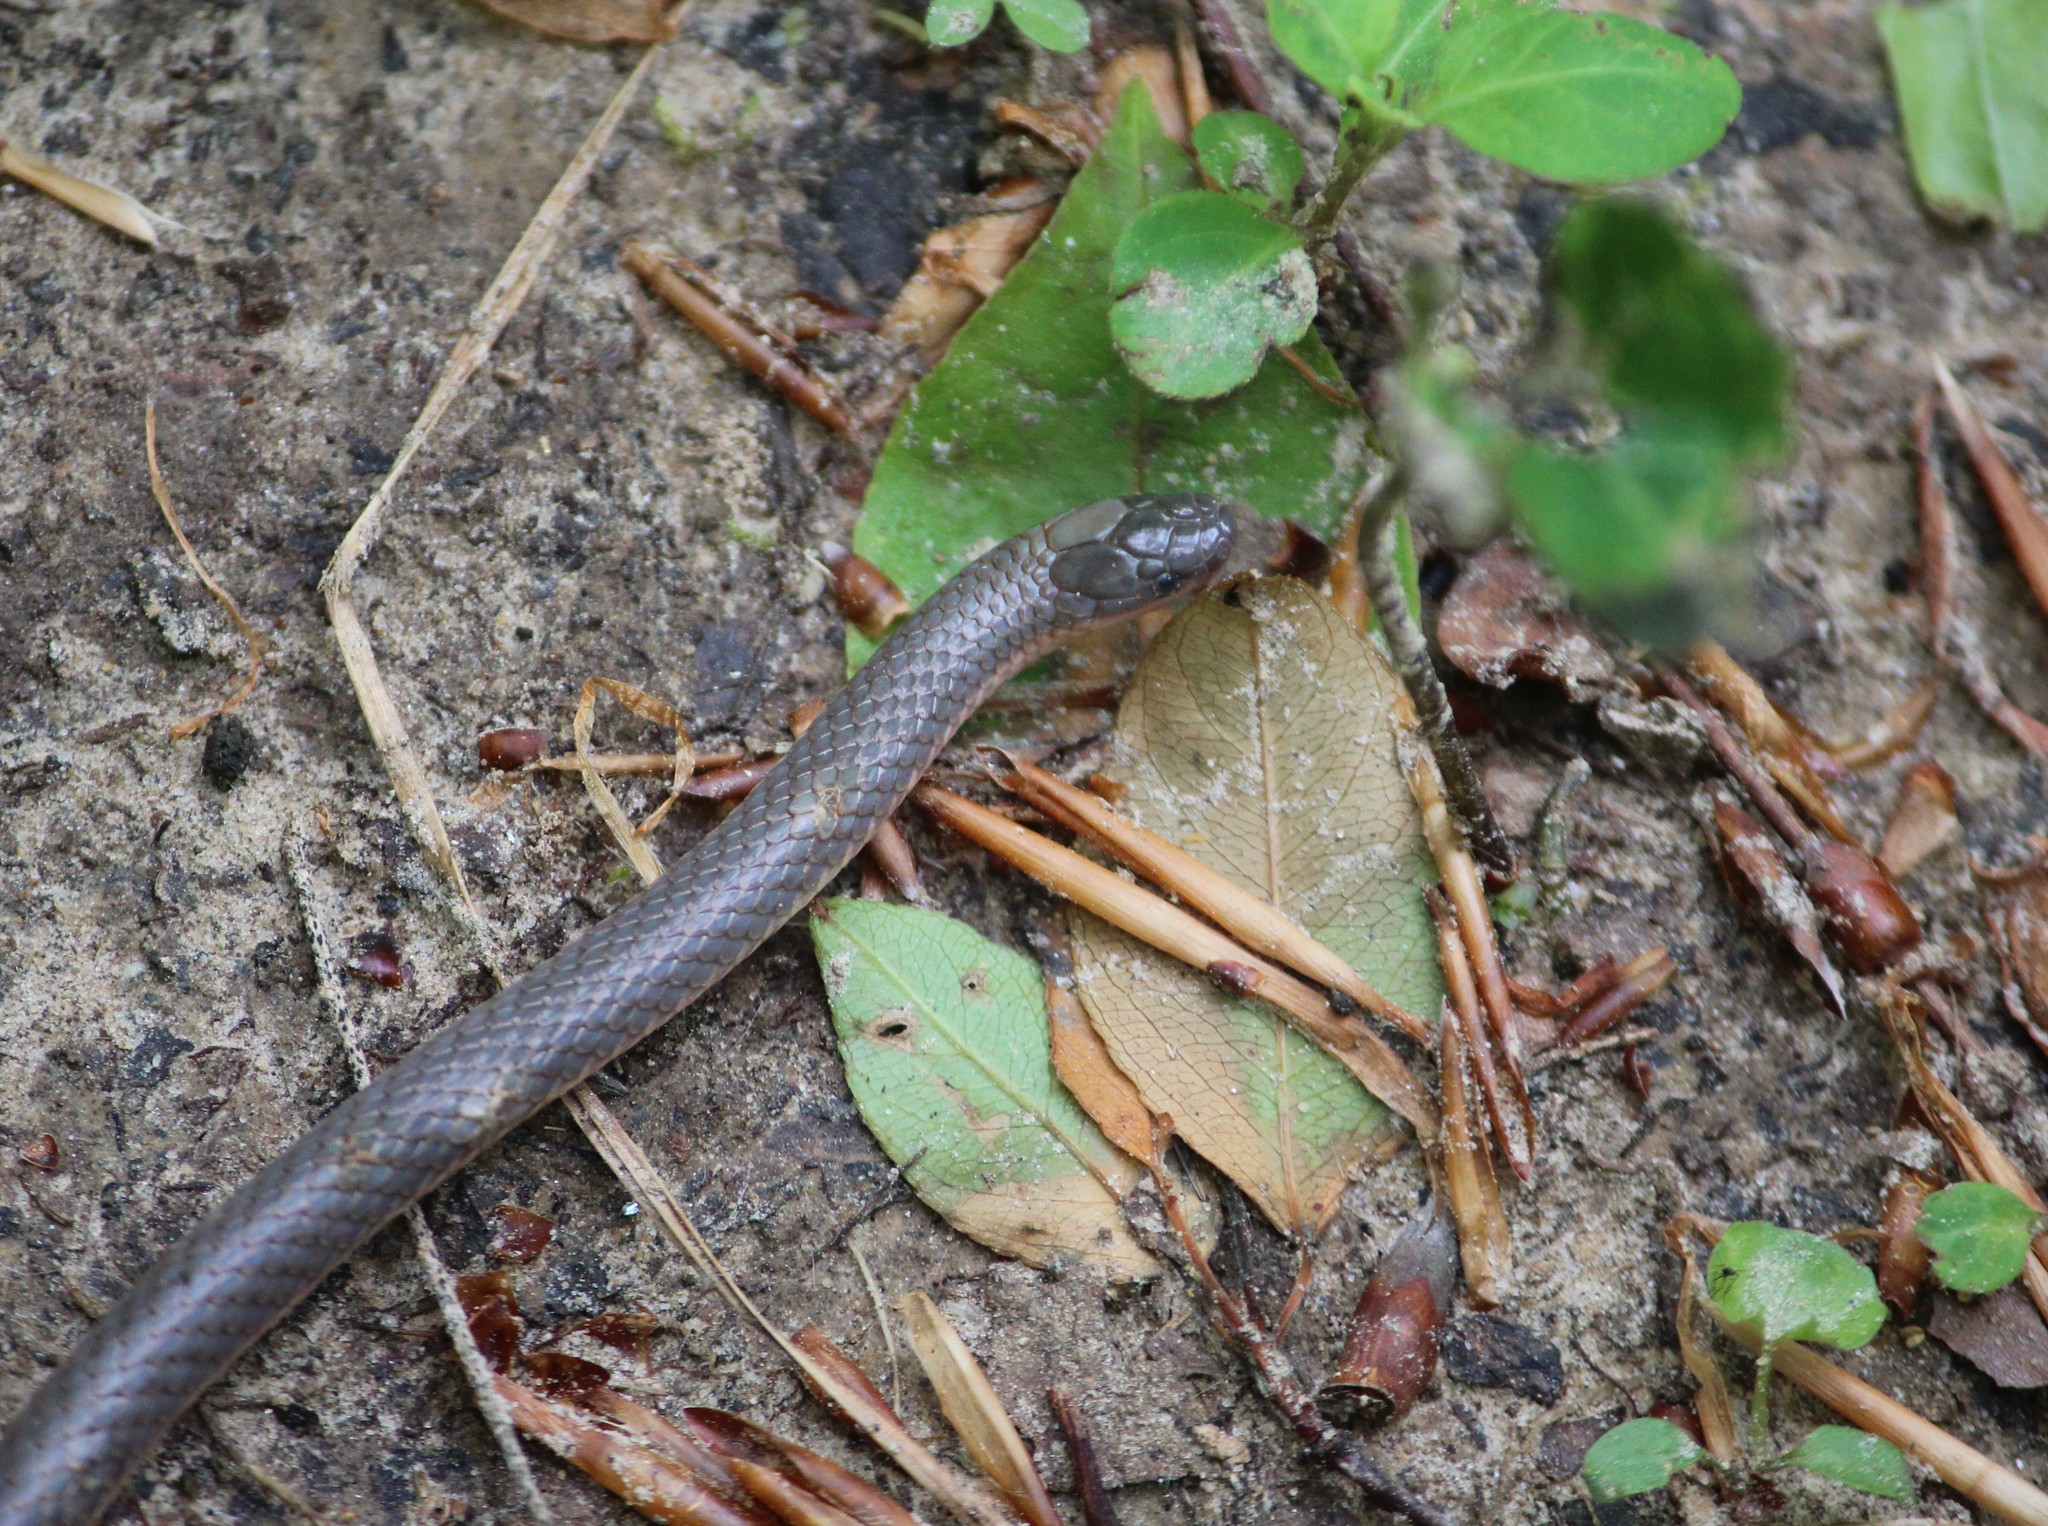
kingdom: Animalia
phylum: Chordata
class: Squamata
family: Colubridae
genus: Carphophis
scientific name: Carphophis amoenus
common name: Eastern worm snake
